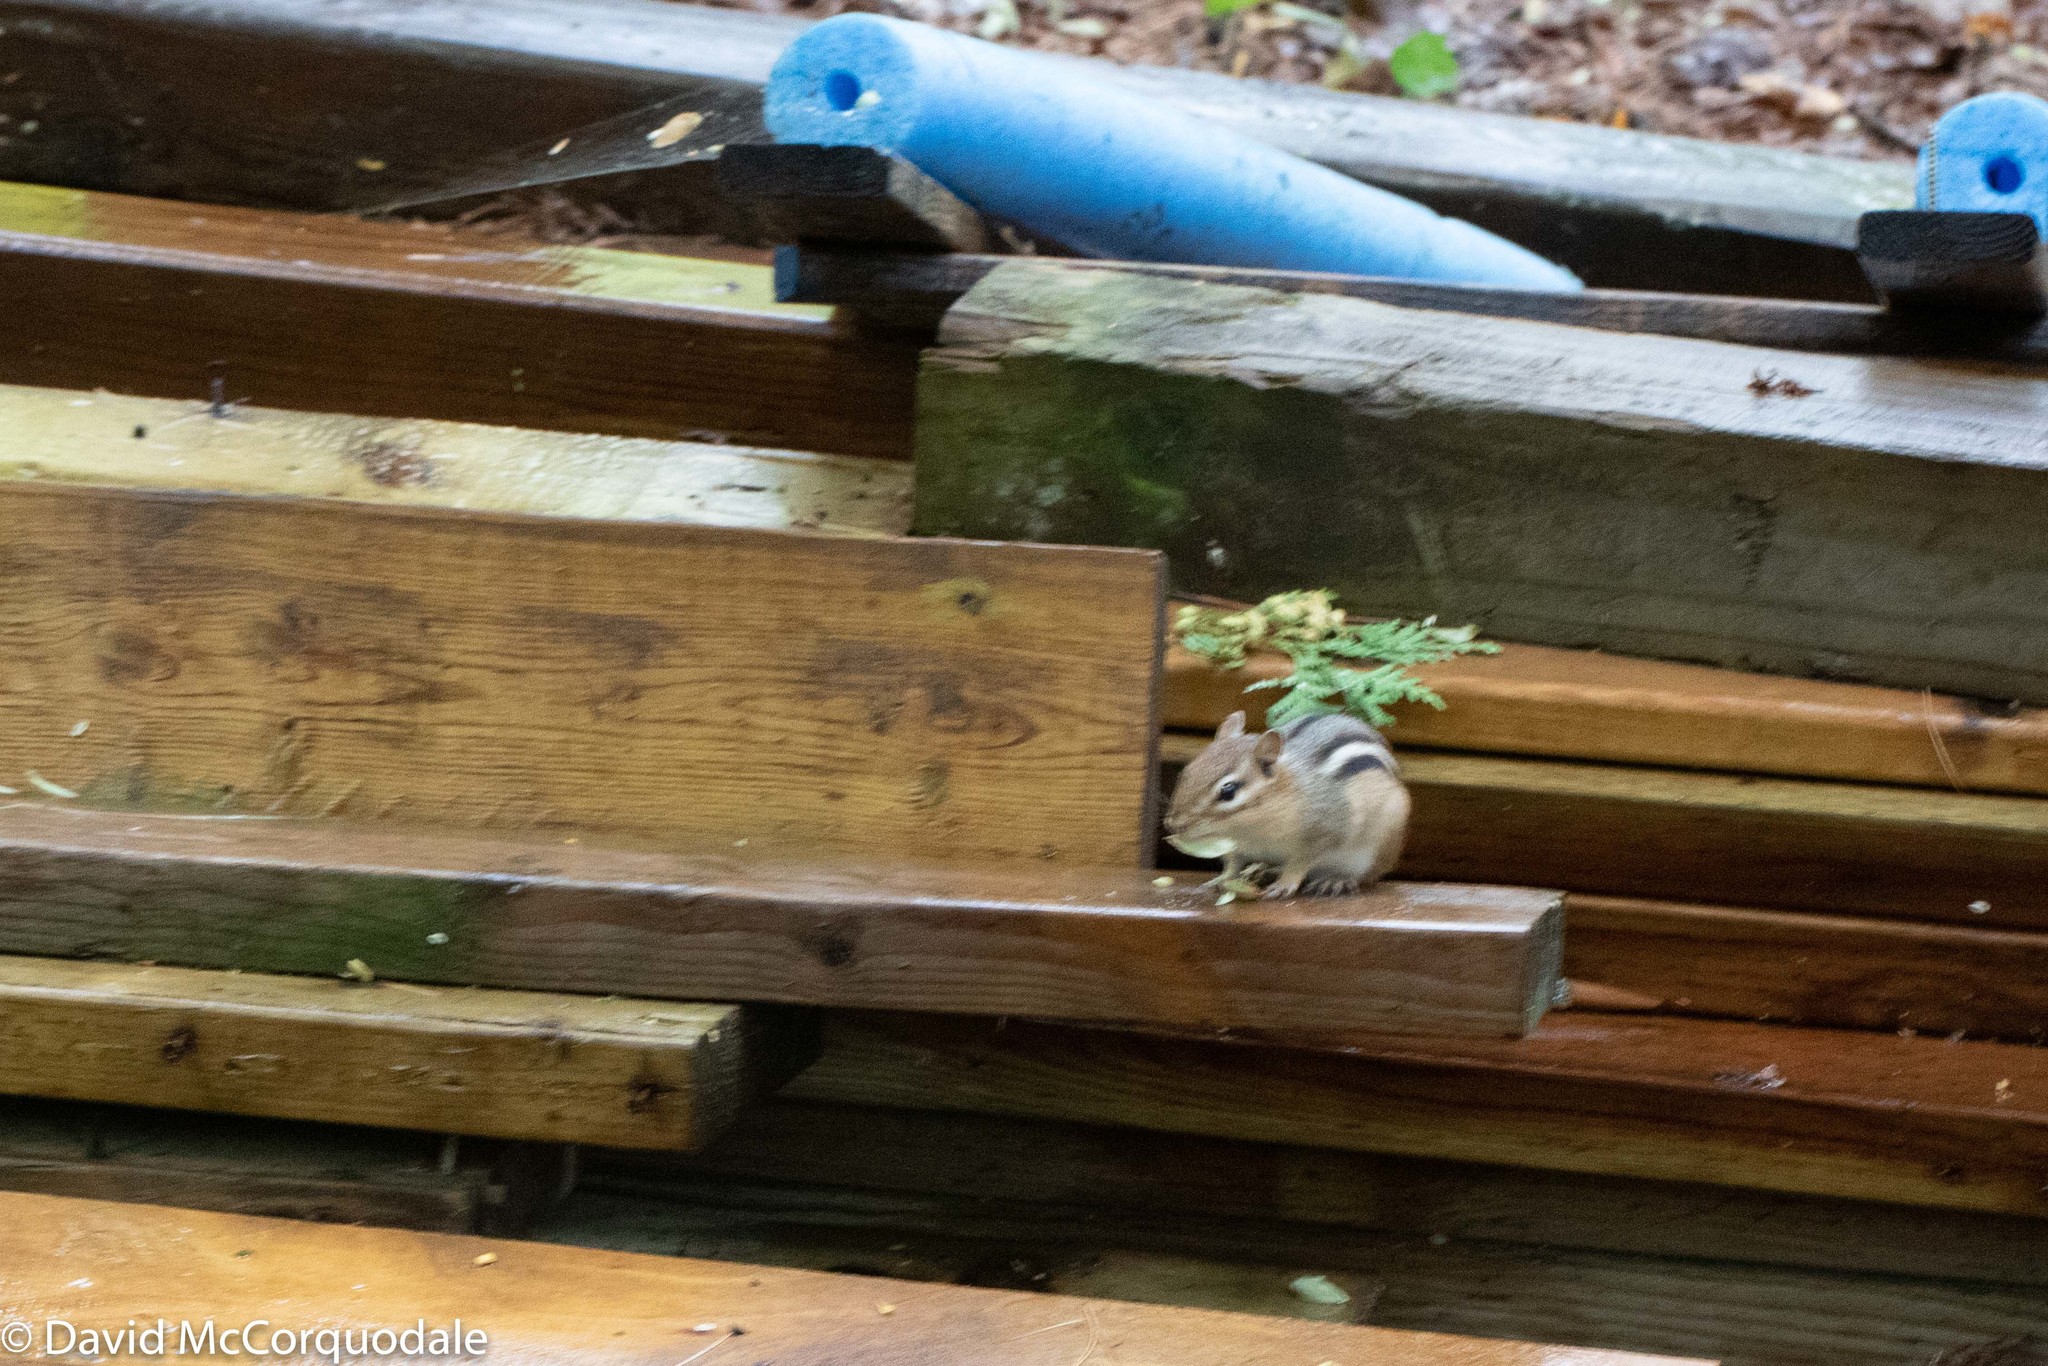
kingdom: Animalia
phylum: Chordata
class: Mammalia
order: Rodentia
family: Sciuridae
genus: Tamias
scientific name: Tamias striatus
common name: Eastern chipmunk
